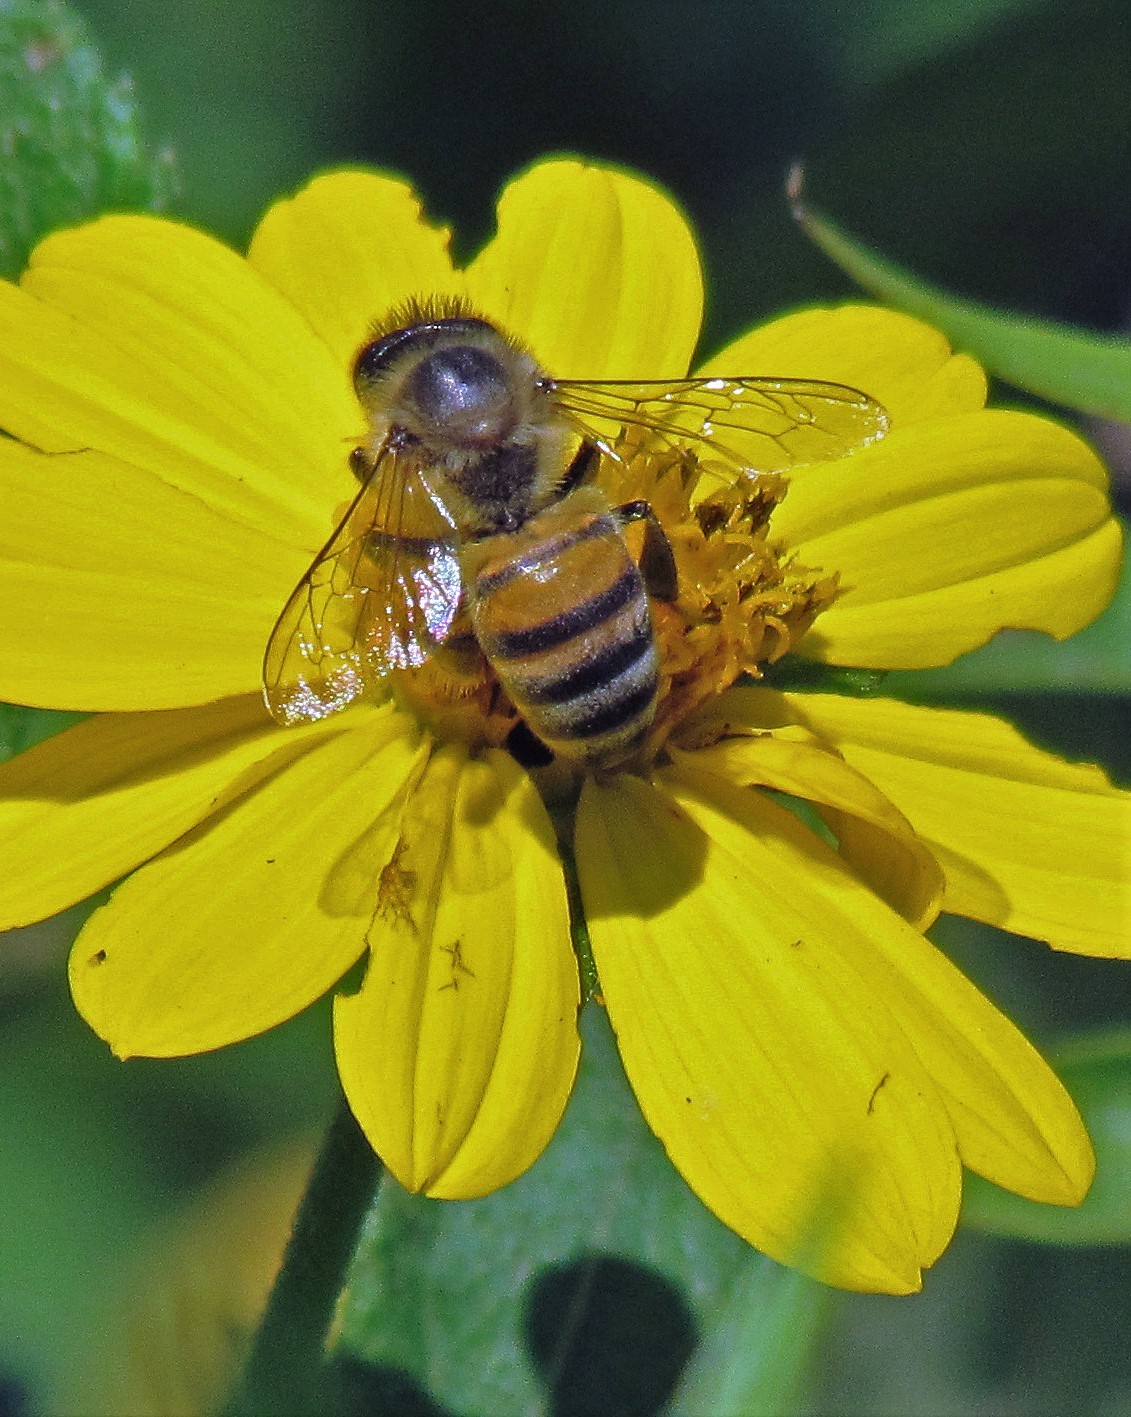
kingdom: Animalia
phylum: Arthropoda
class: Insecta
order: Hymenoptera
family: Apidae
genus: Apis
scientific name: Apis mellifera
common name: Honey bee
